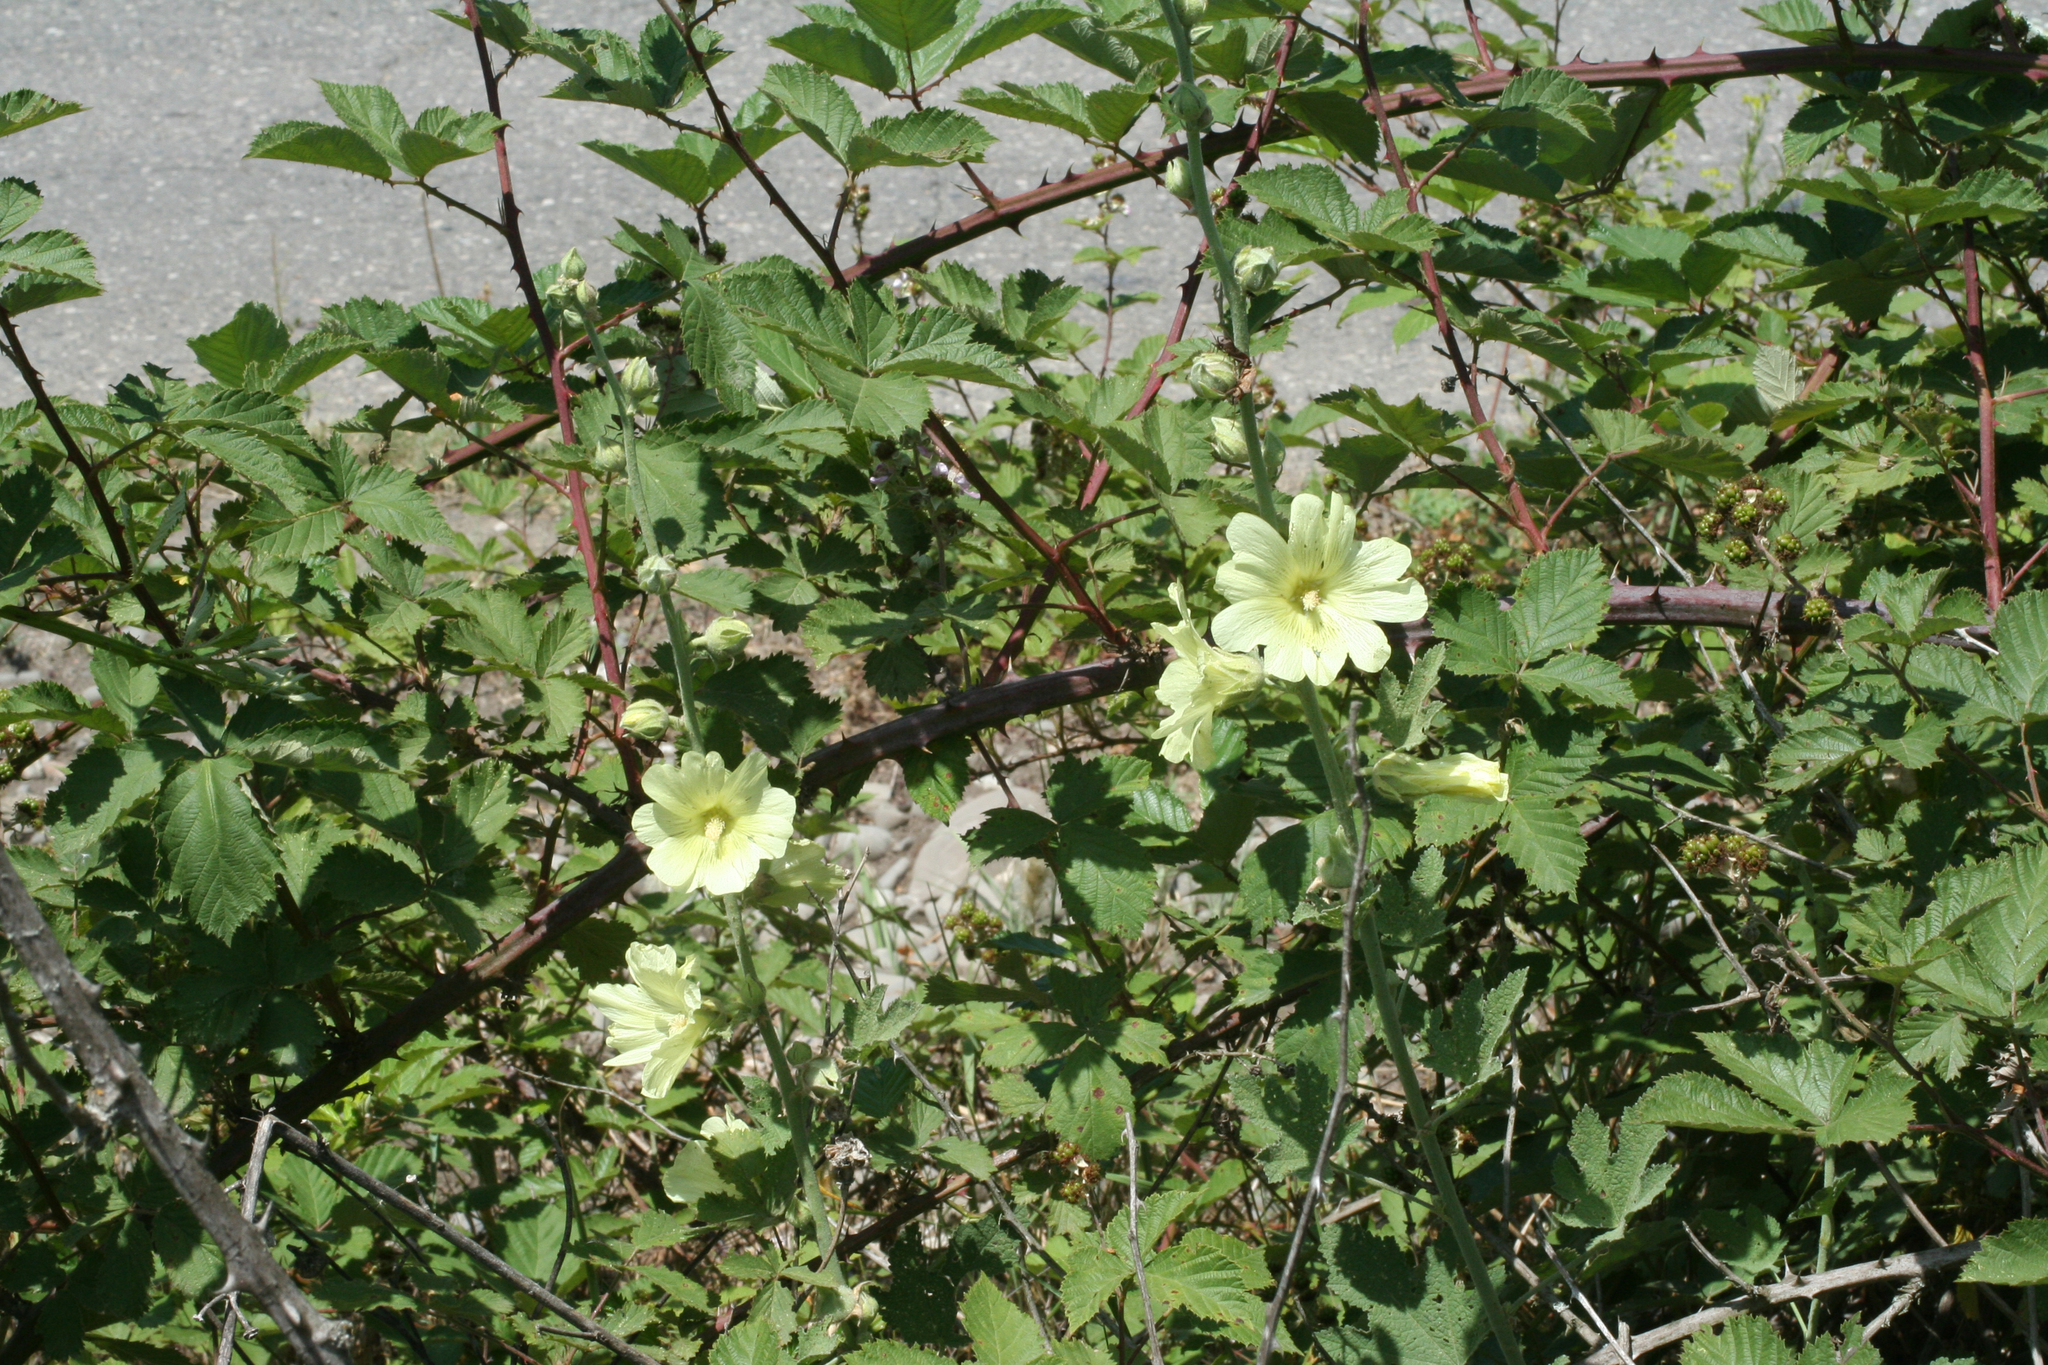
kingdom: Plantae
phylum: Tracheophyta
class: Magnoliopsida
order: Malvales
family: Malvaceae
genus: Alcea
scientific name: Alcea rugosa
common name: Russian hollyhock
